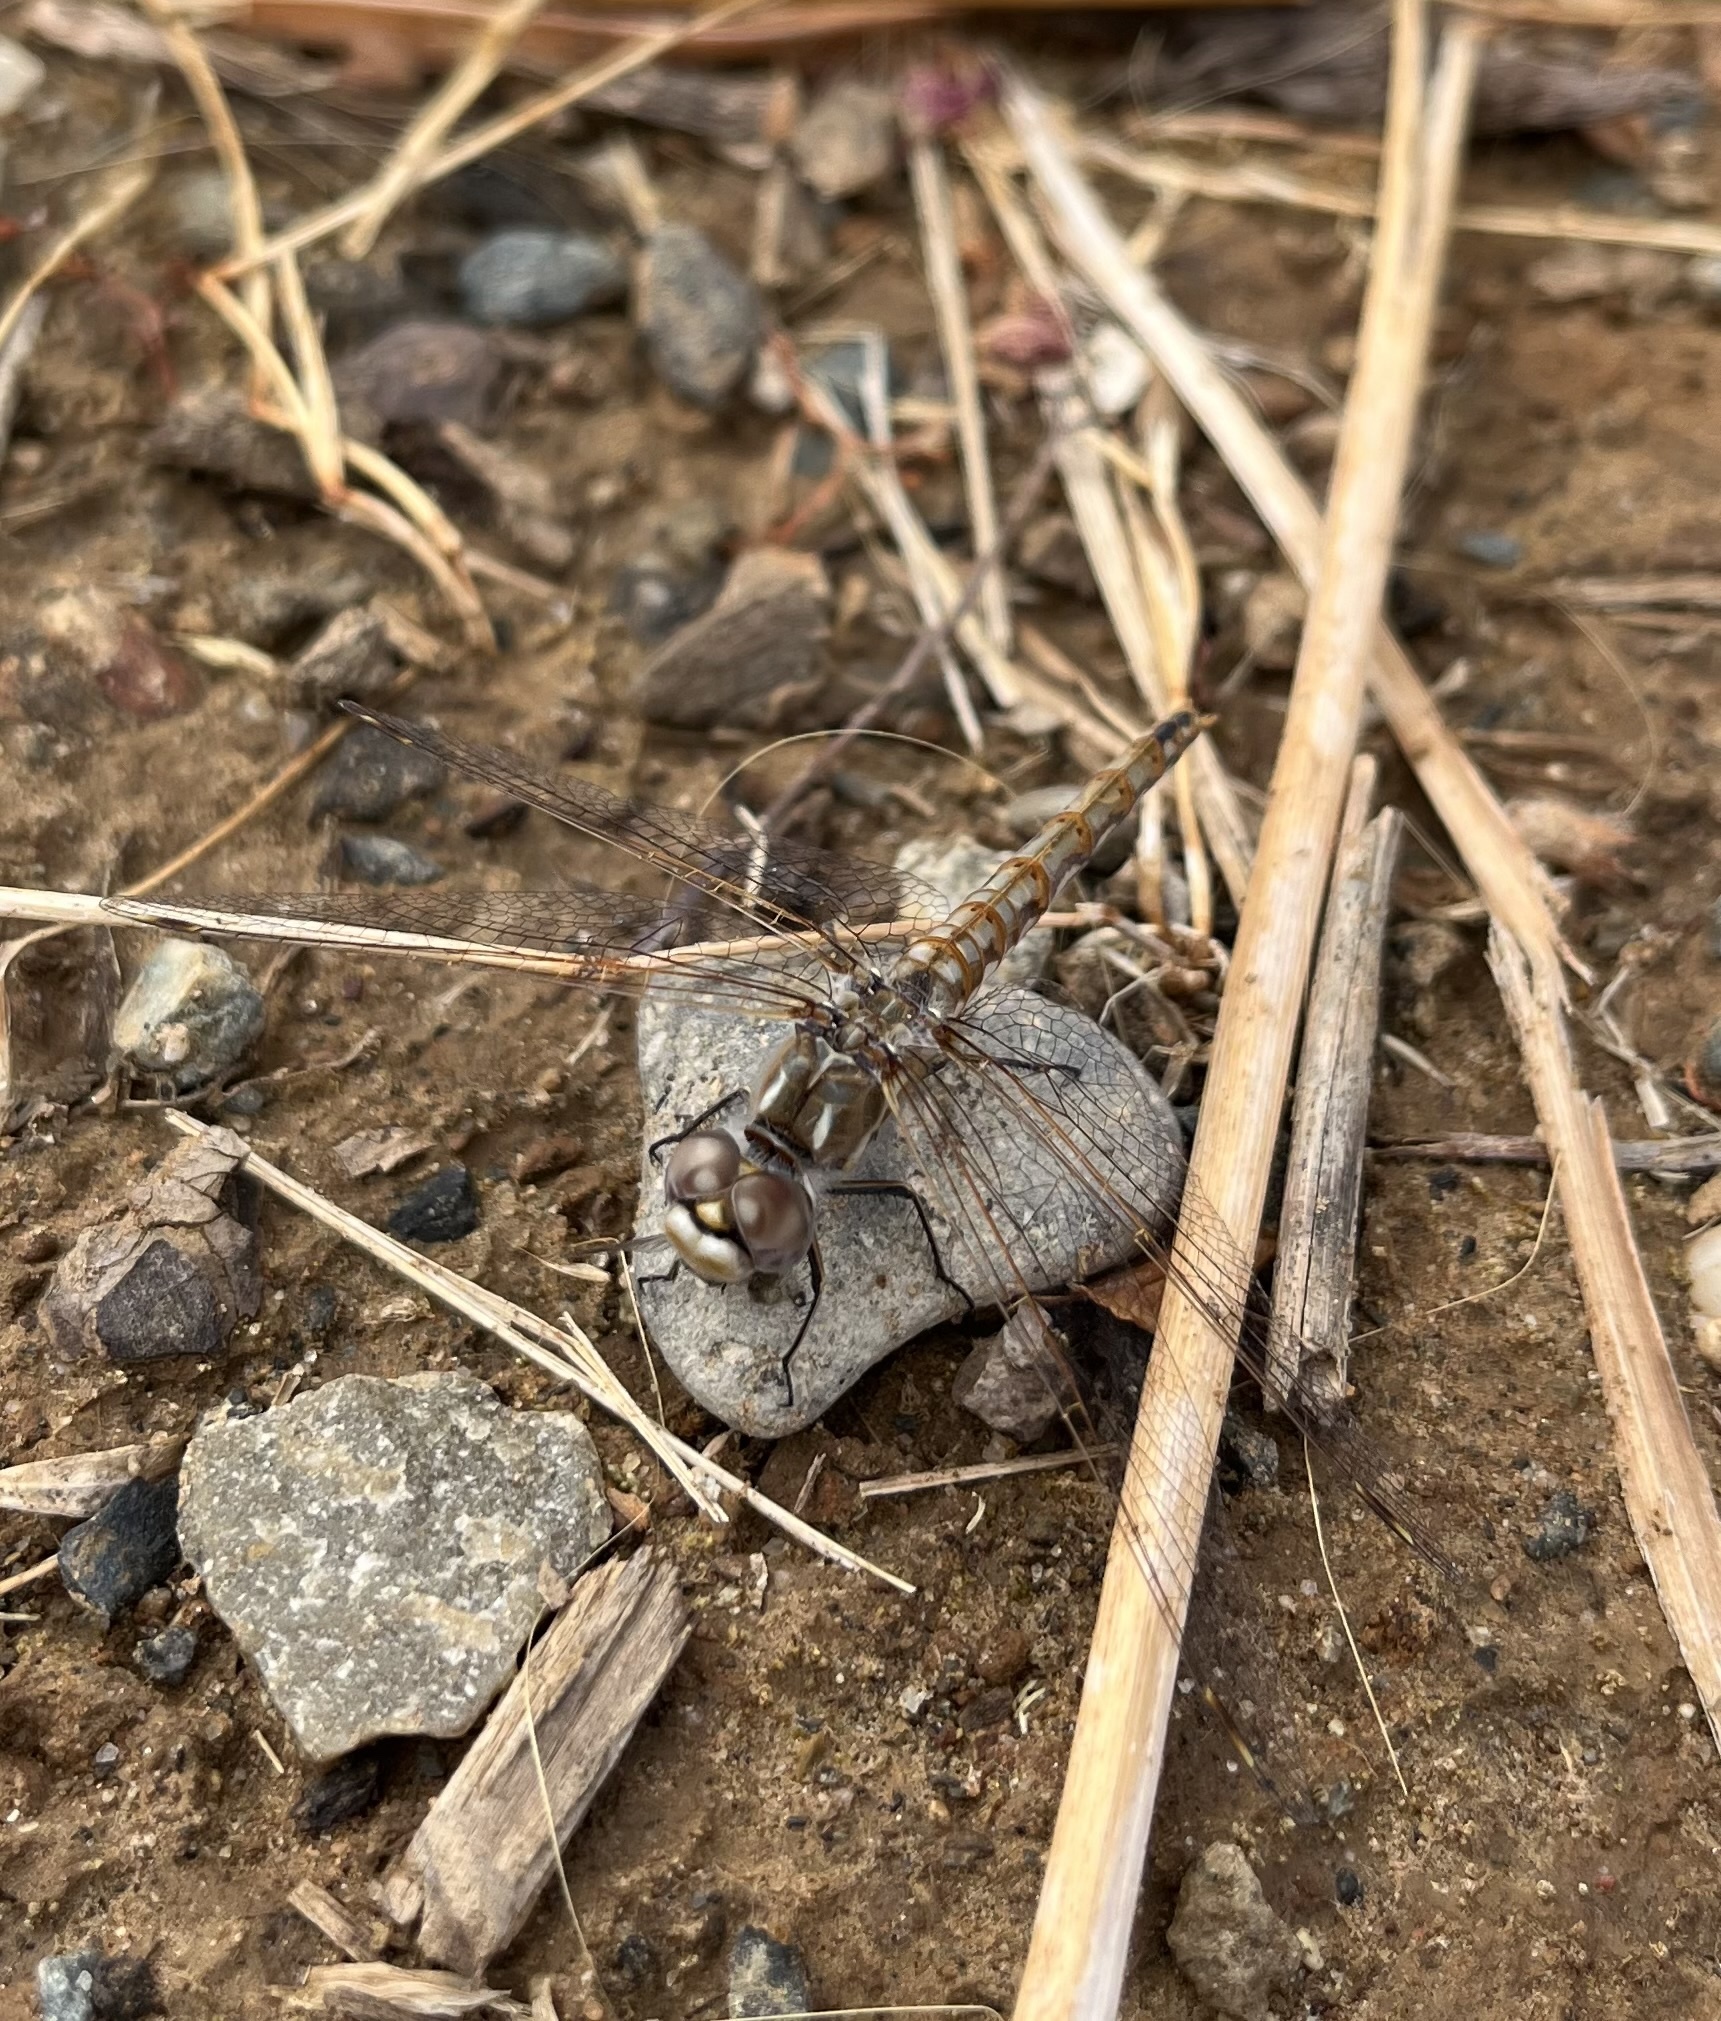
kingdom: Animalia
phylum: Arthropoda
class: Insecta
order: Odonata
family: Libellulidae
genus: Sympetrum
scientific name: Sympetrum corruptum
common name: Variegated meadowhawk
